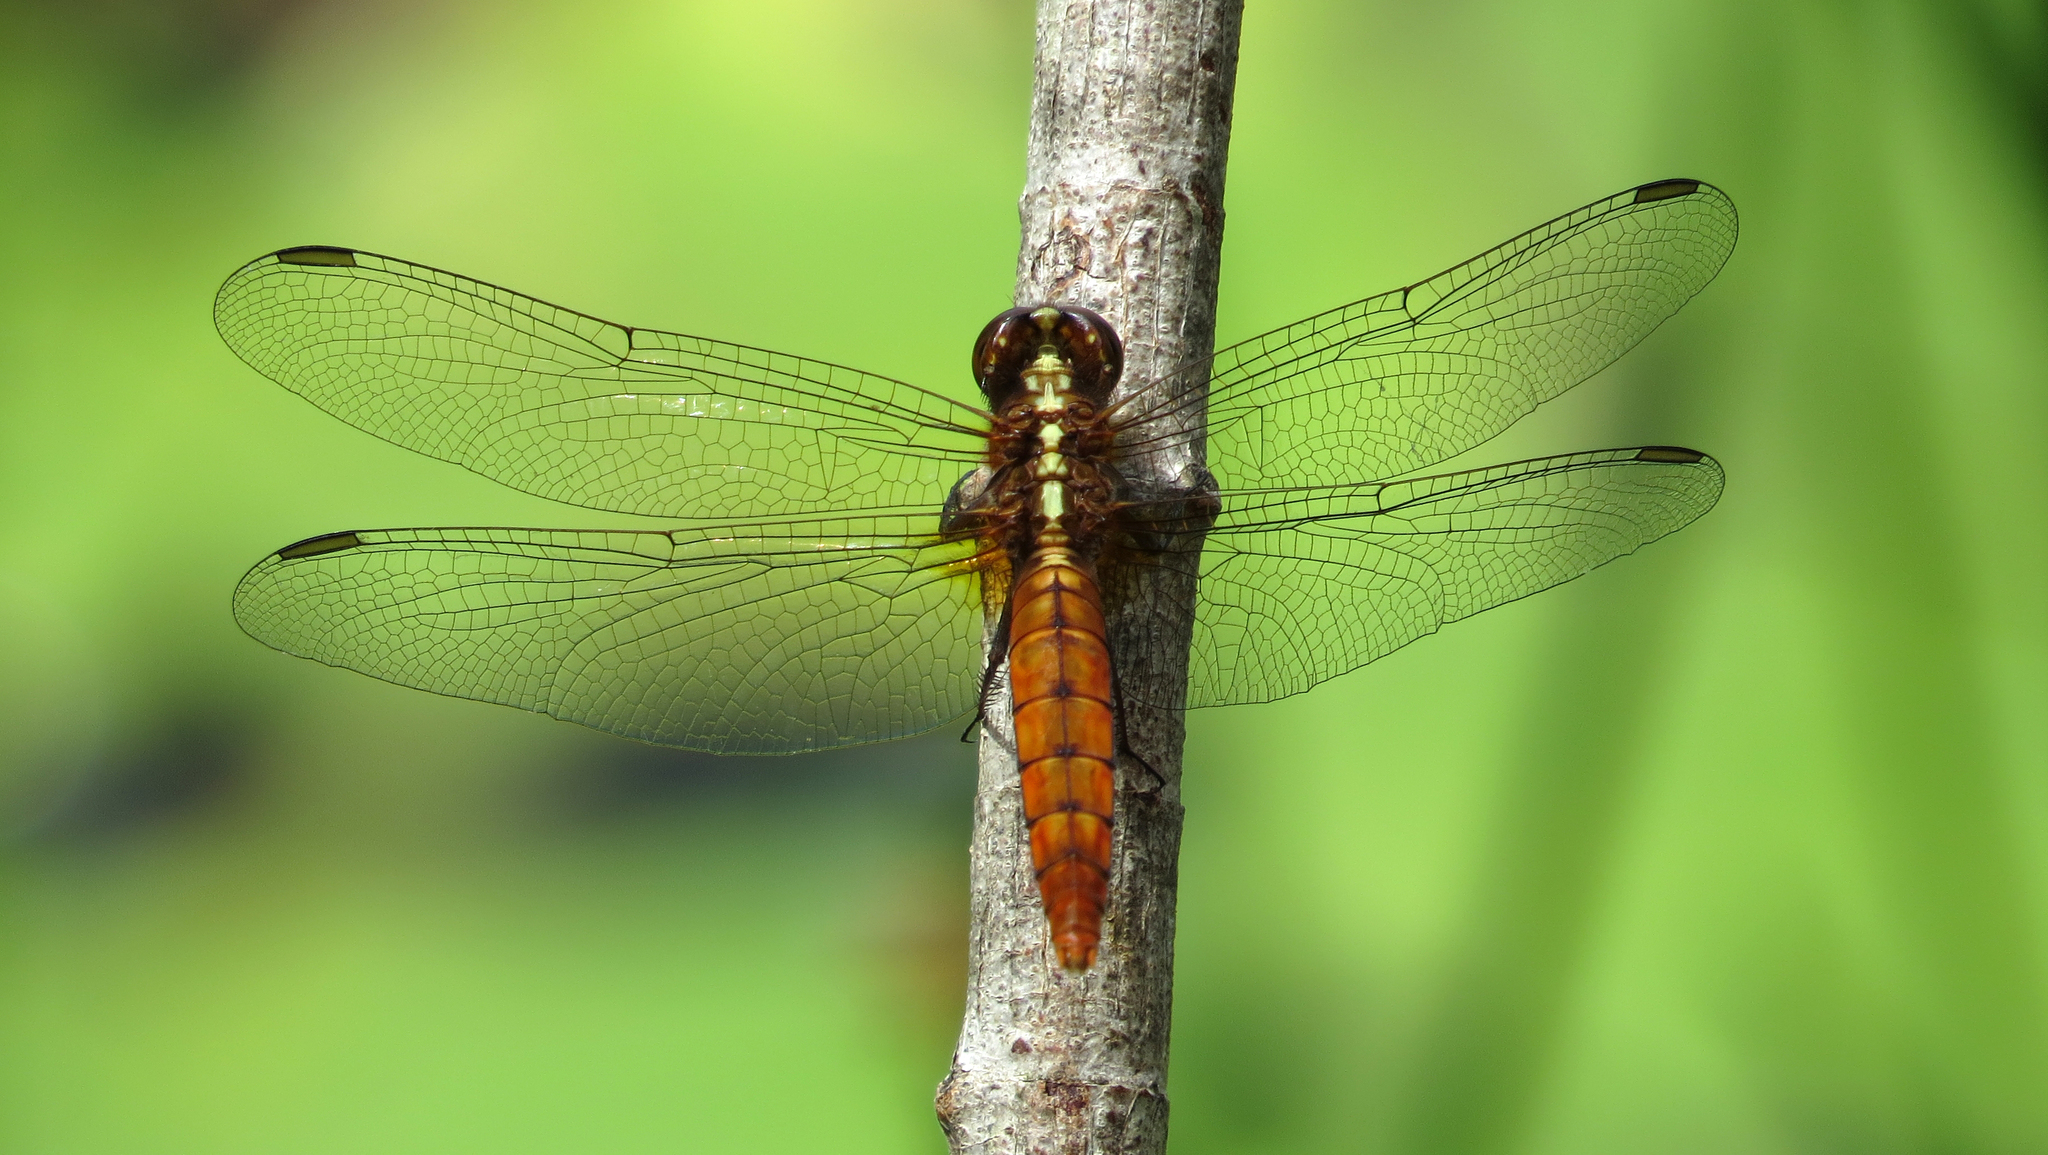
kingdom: Animalia
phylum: Arthropoda
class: Insecta
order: Odonata
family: Libellulidae
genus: Rhodothemis
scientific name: Rhodothemis lieftincki
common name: Red arrow
